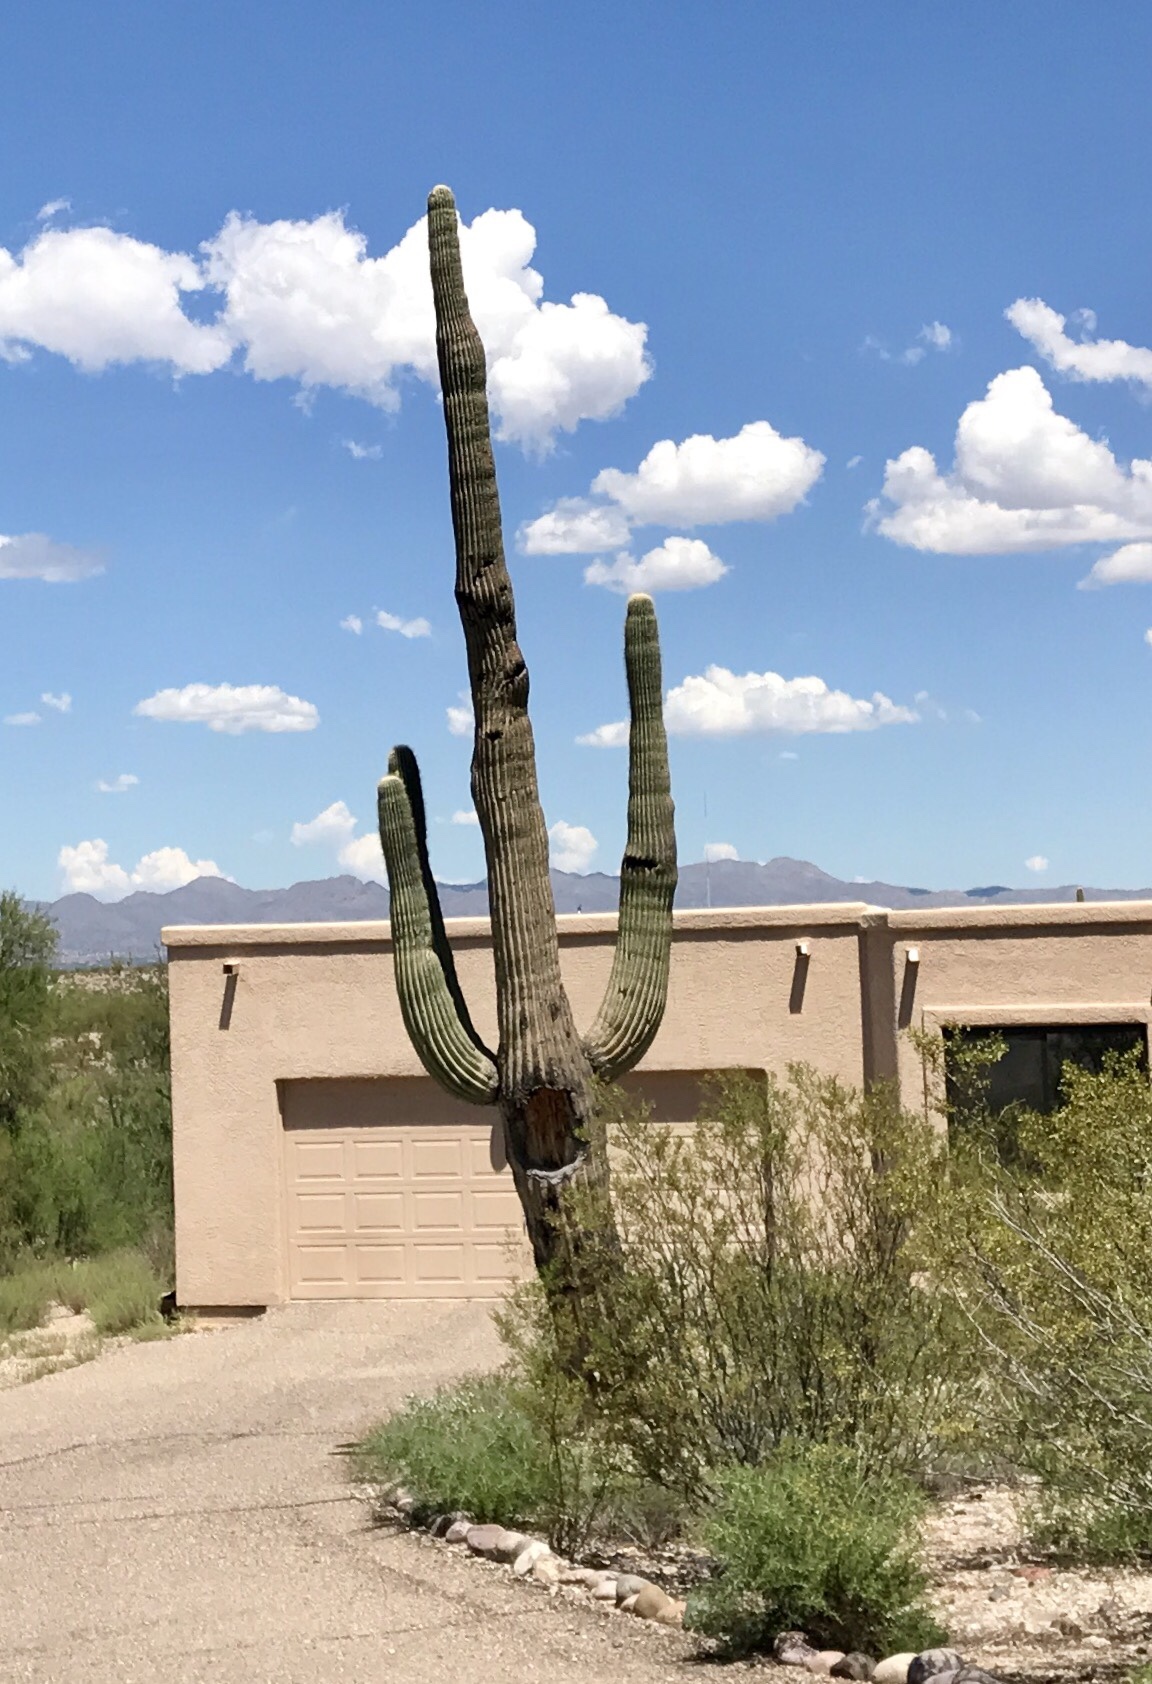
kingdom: Plantae
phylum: Tracheophyta
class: Magnoliopsida
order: Caryophyllales
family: Cactaceae
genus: Carnegiea
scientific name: Carnegiea gigantea
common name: Saguaro
